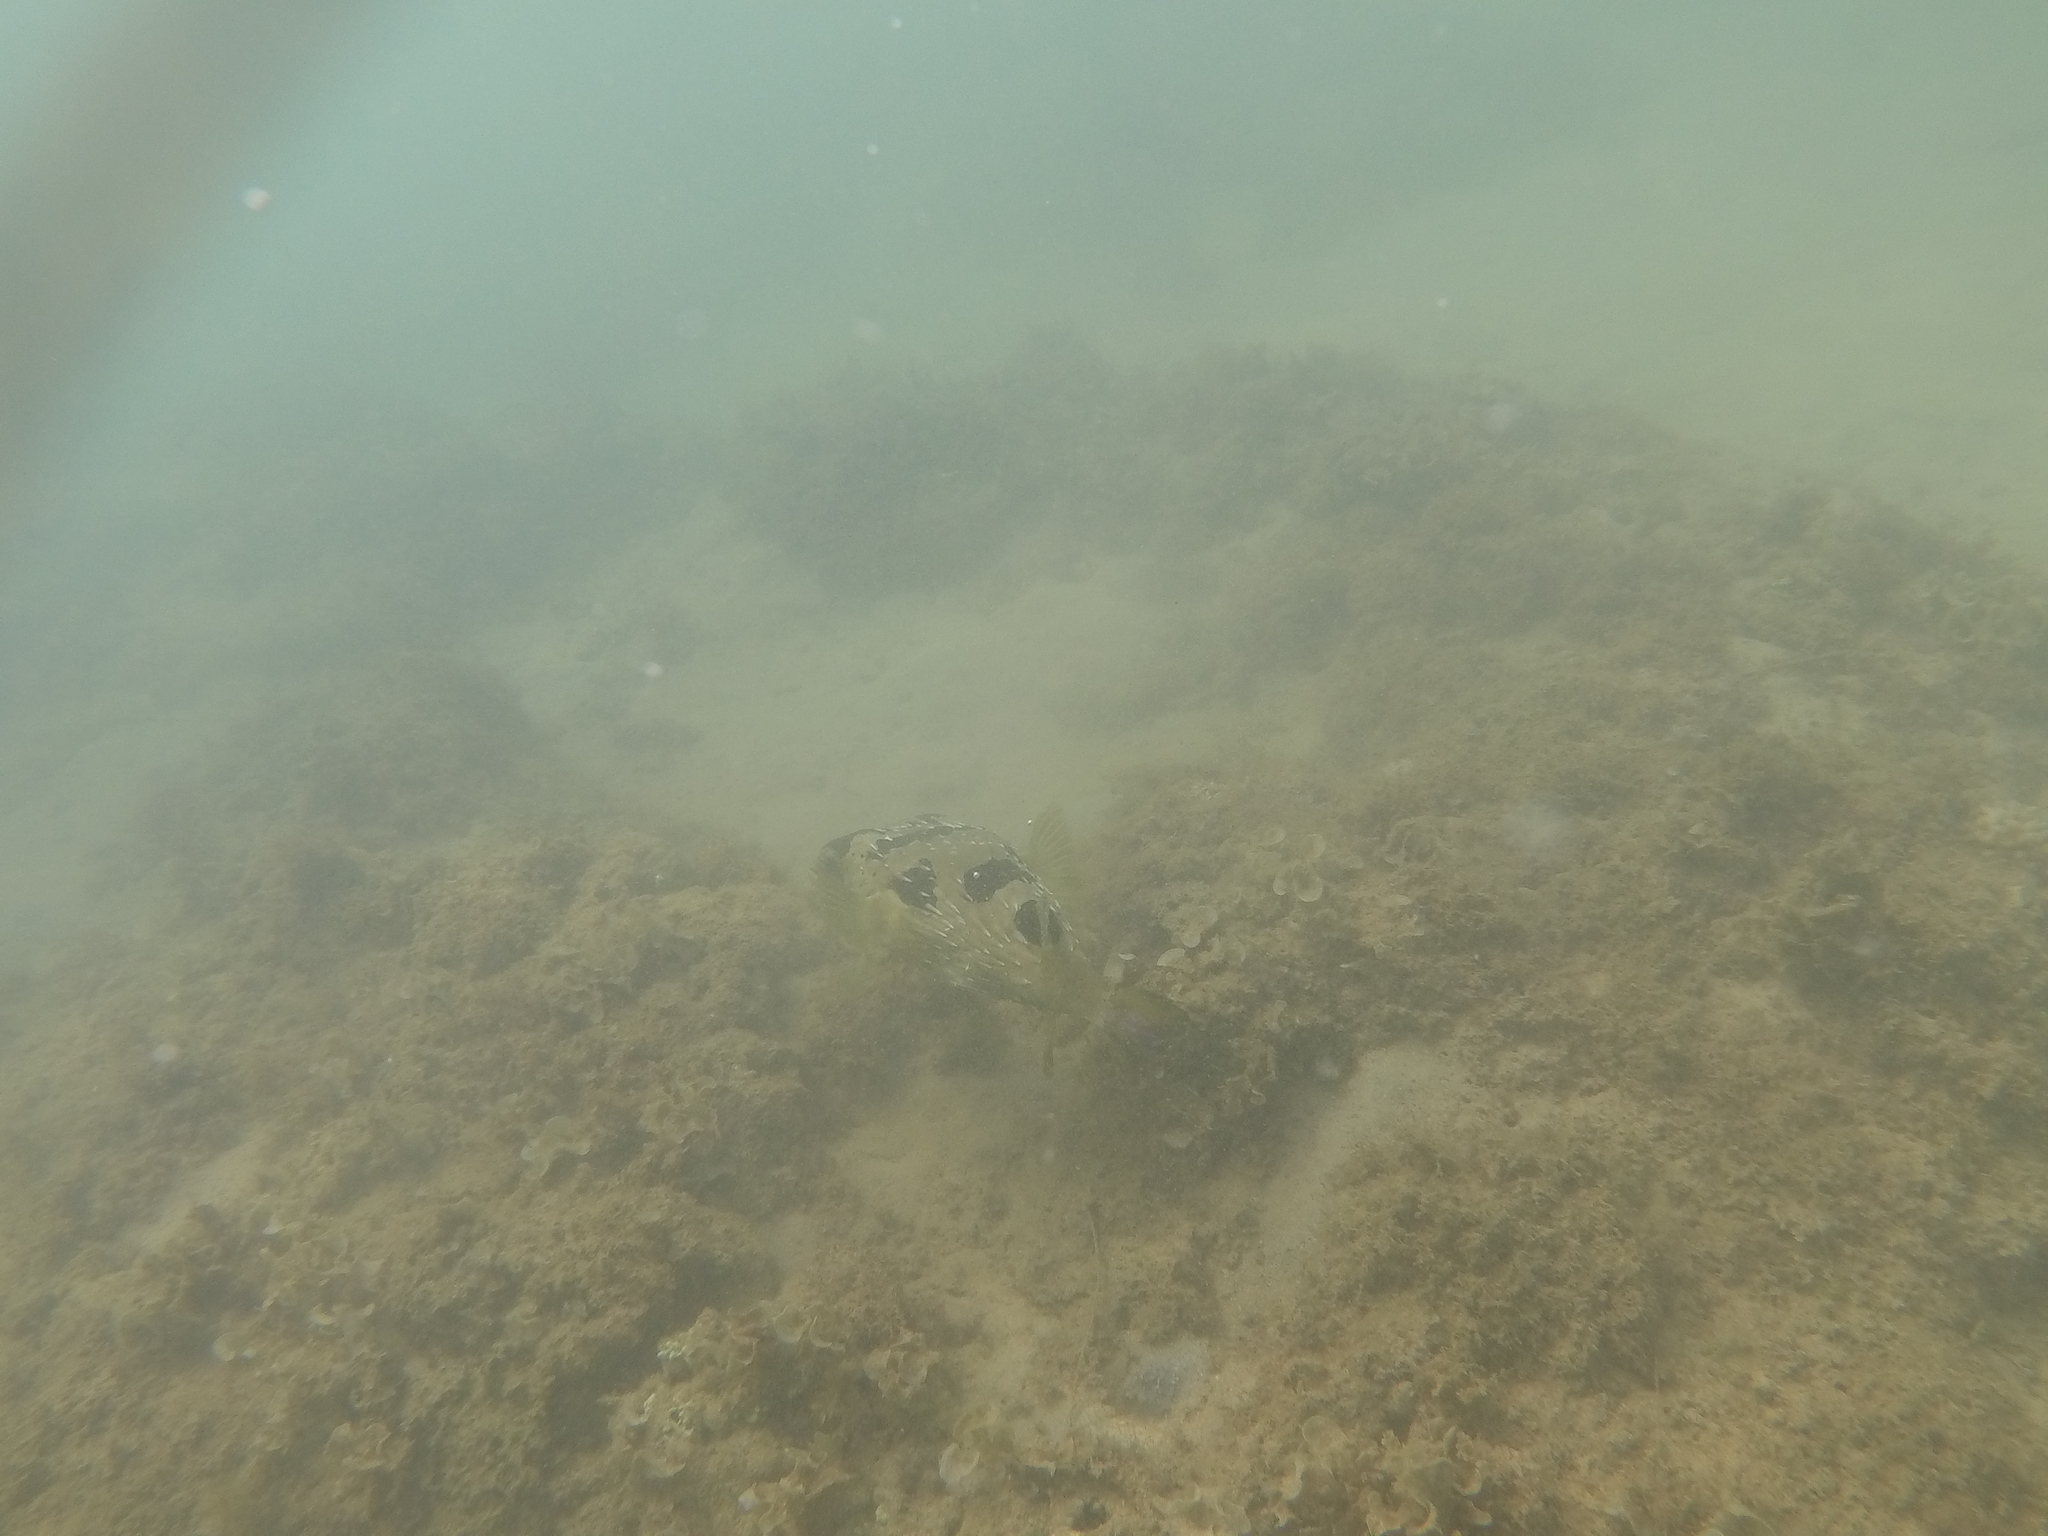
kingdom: Animalia
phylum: Chordata
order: Tetraodontiformes
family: Diodontidae
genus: Diodon
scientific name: Diodon holocanthus
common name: Balloonfish
